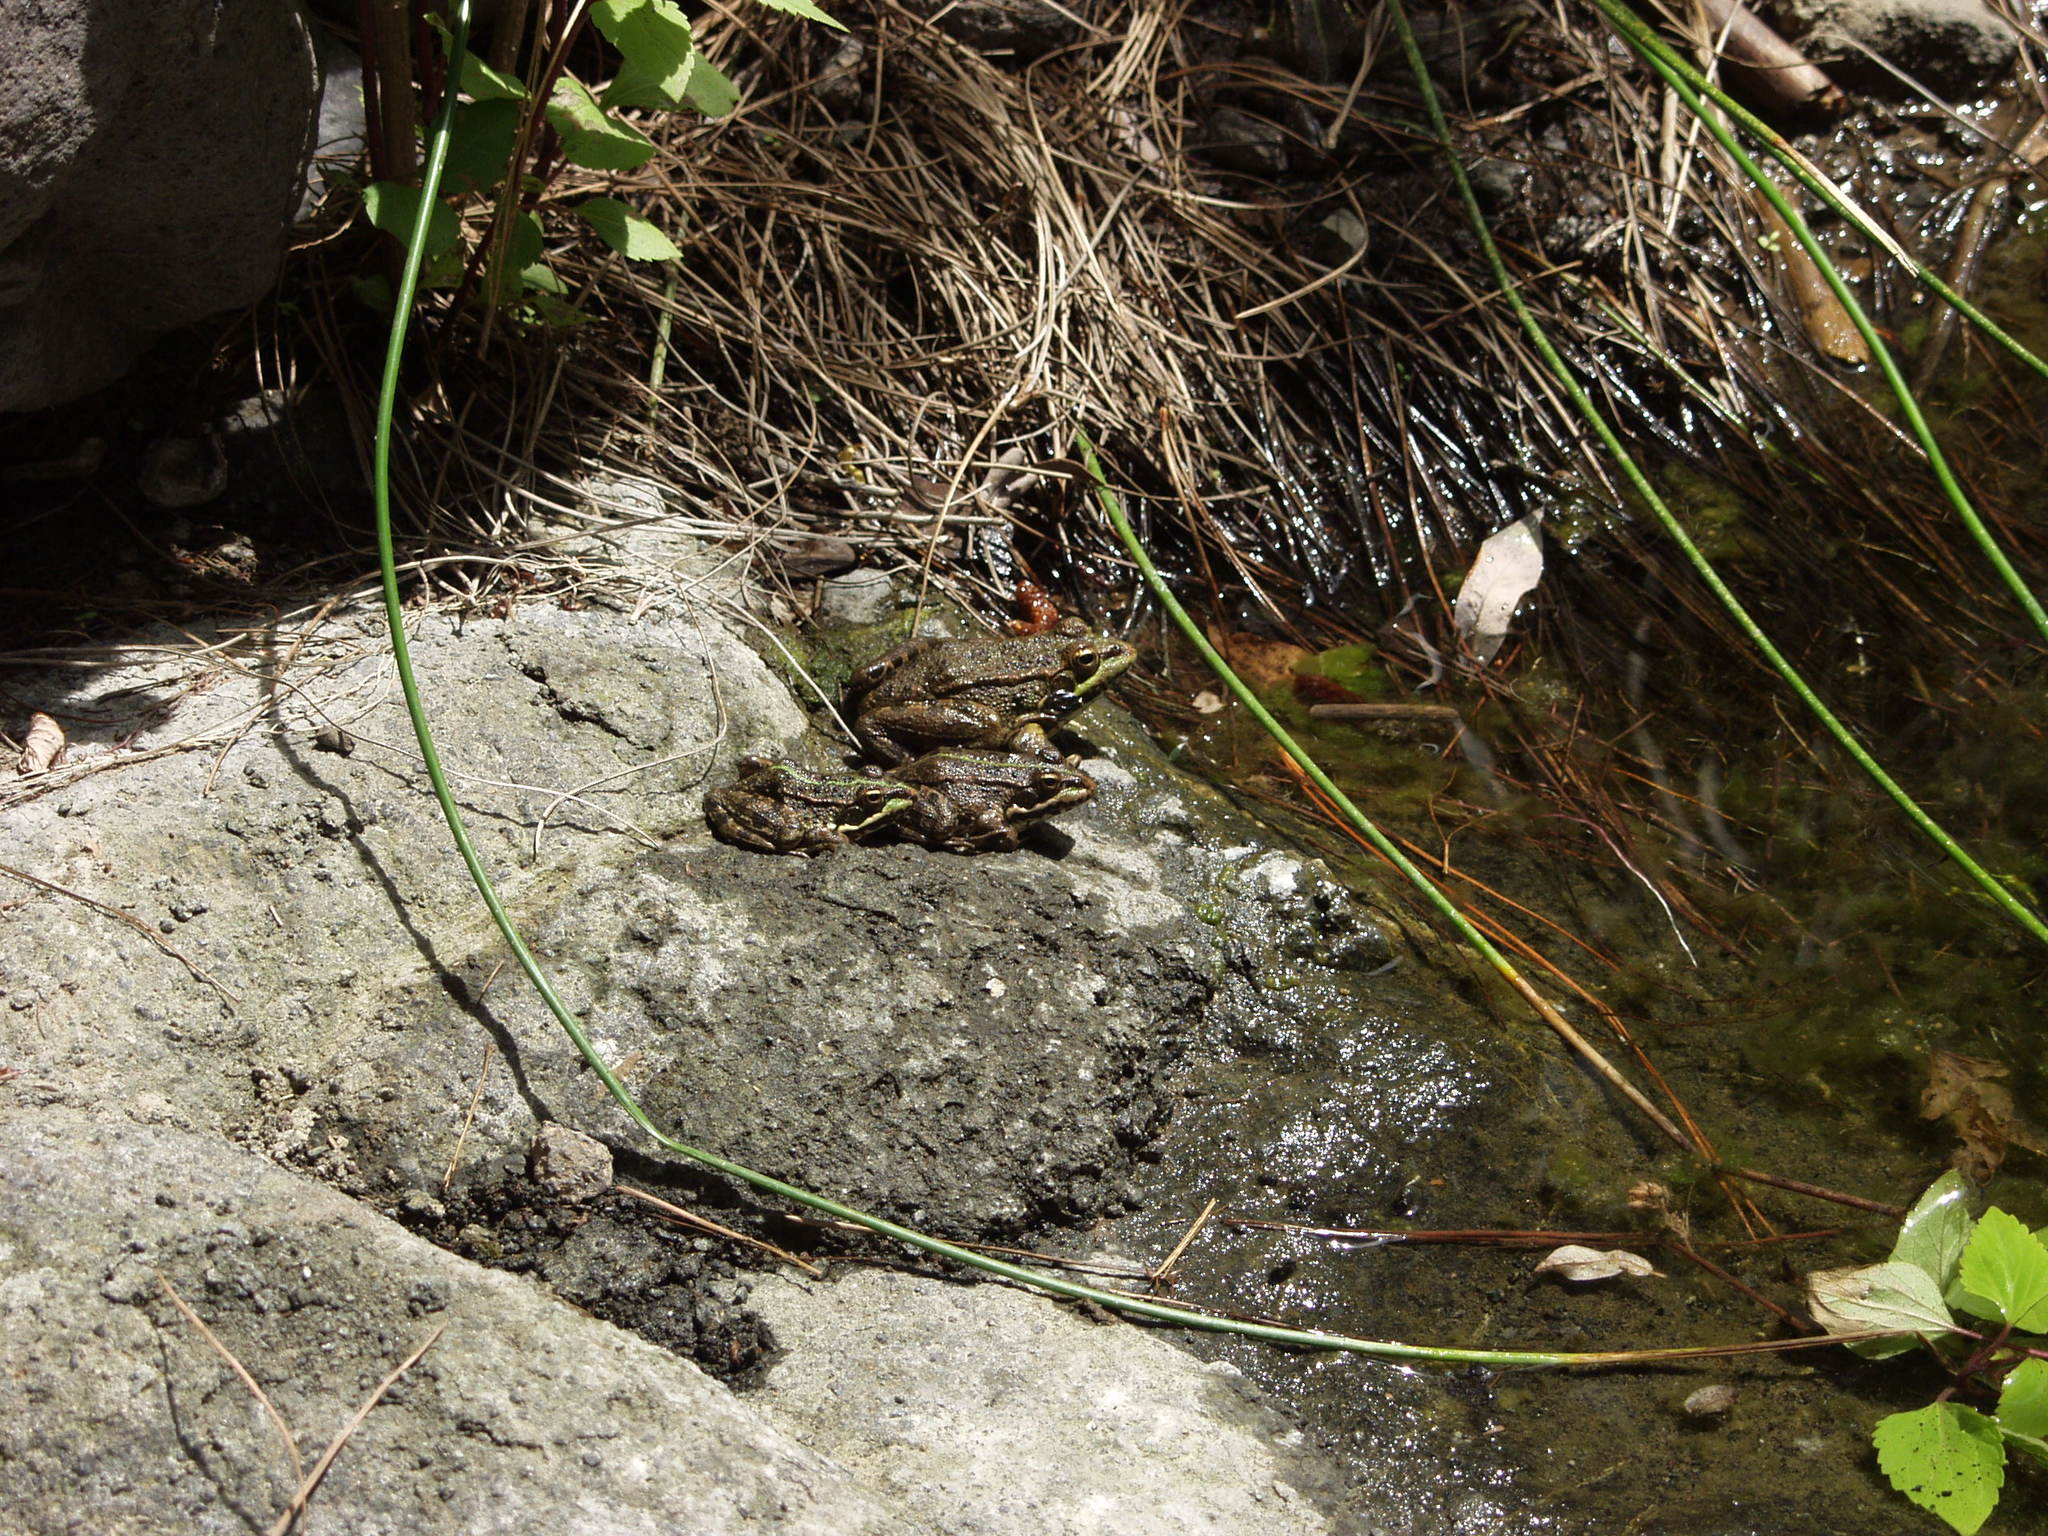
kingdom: Animalia
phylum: Chordata
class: Amphibia
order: Anura
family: Ranidae
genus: Pelophylax
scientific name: Pelophylax perezi
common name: Perez's frog
